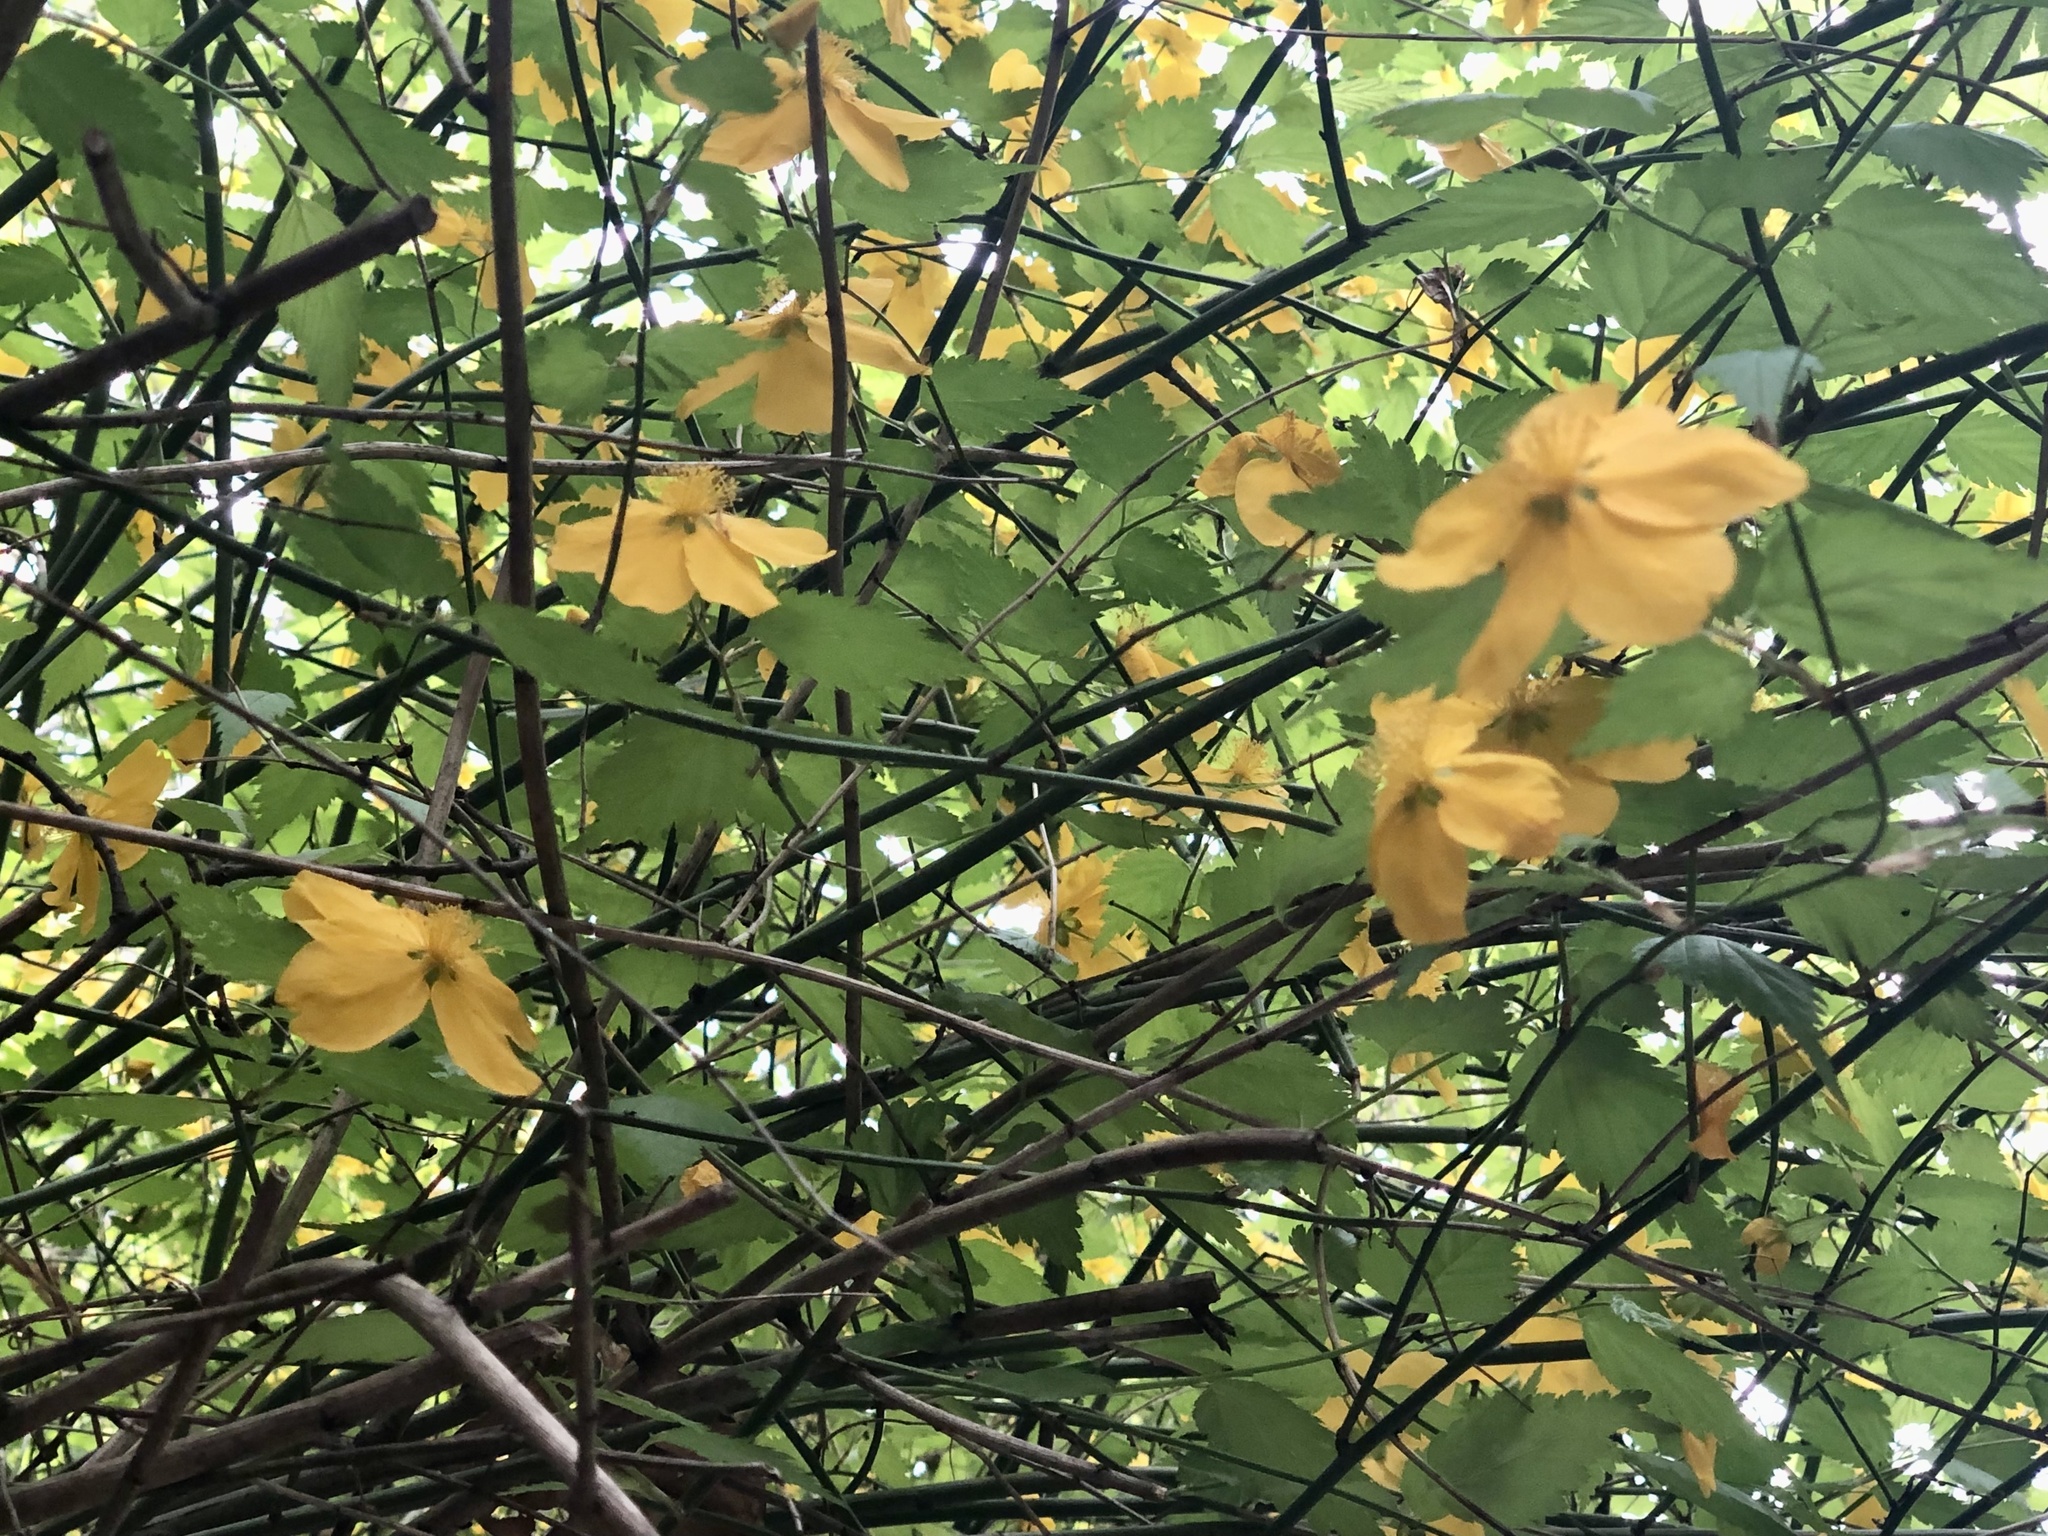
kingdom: Plantae
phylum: Tracheophyta
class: Magnoliopsida
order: Rosales
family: Rosaceae
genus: Kerria
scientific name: Kerria japonica
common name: Japanese kerria
